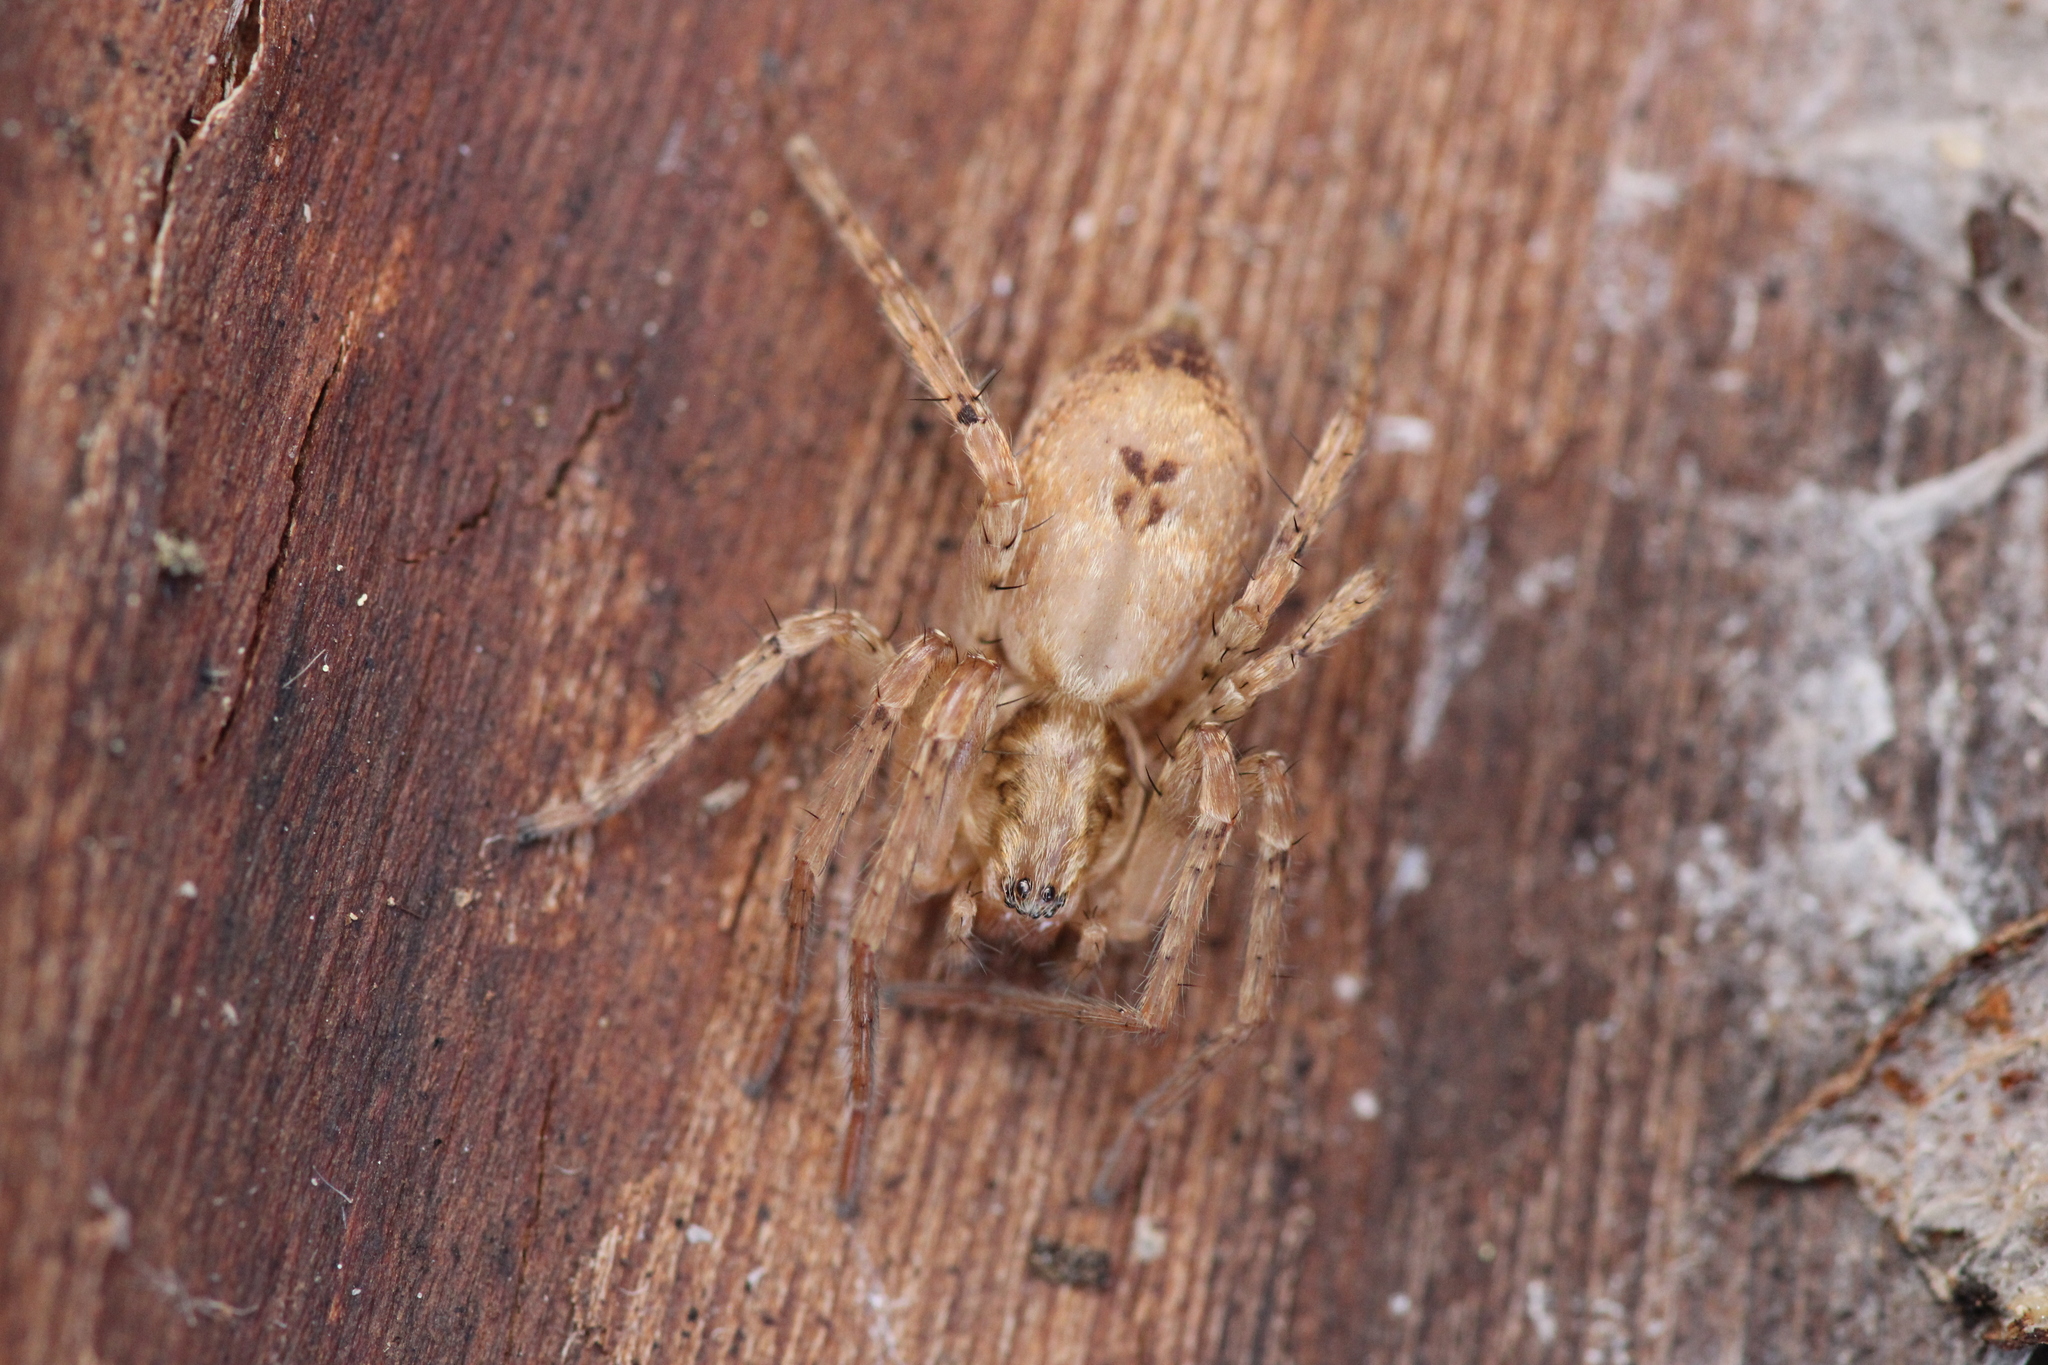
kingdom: Animalia
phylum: Arthropoda
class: Arachnida
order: Araneae
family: Anyphaenidae
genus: Anyphaena
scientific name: Anyphaena accentuata
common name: Buzzing spider
